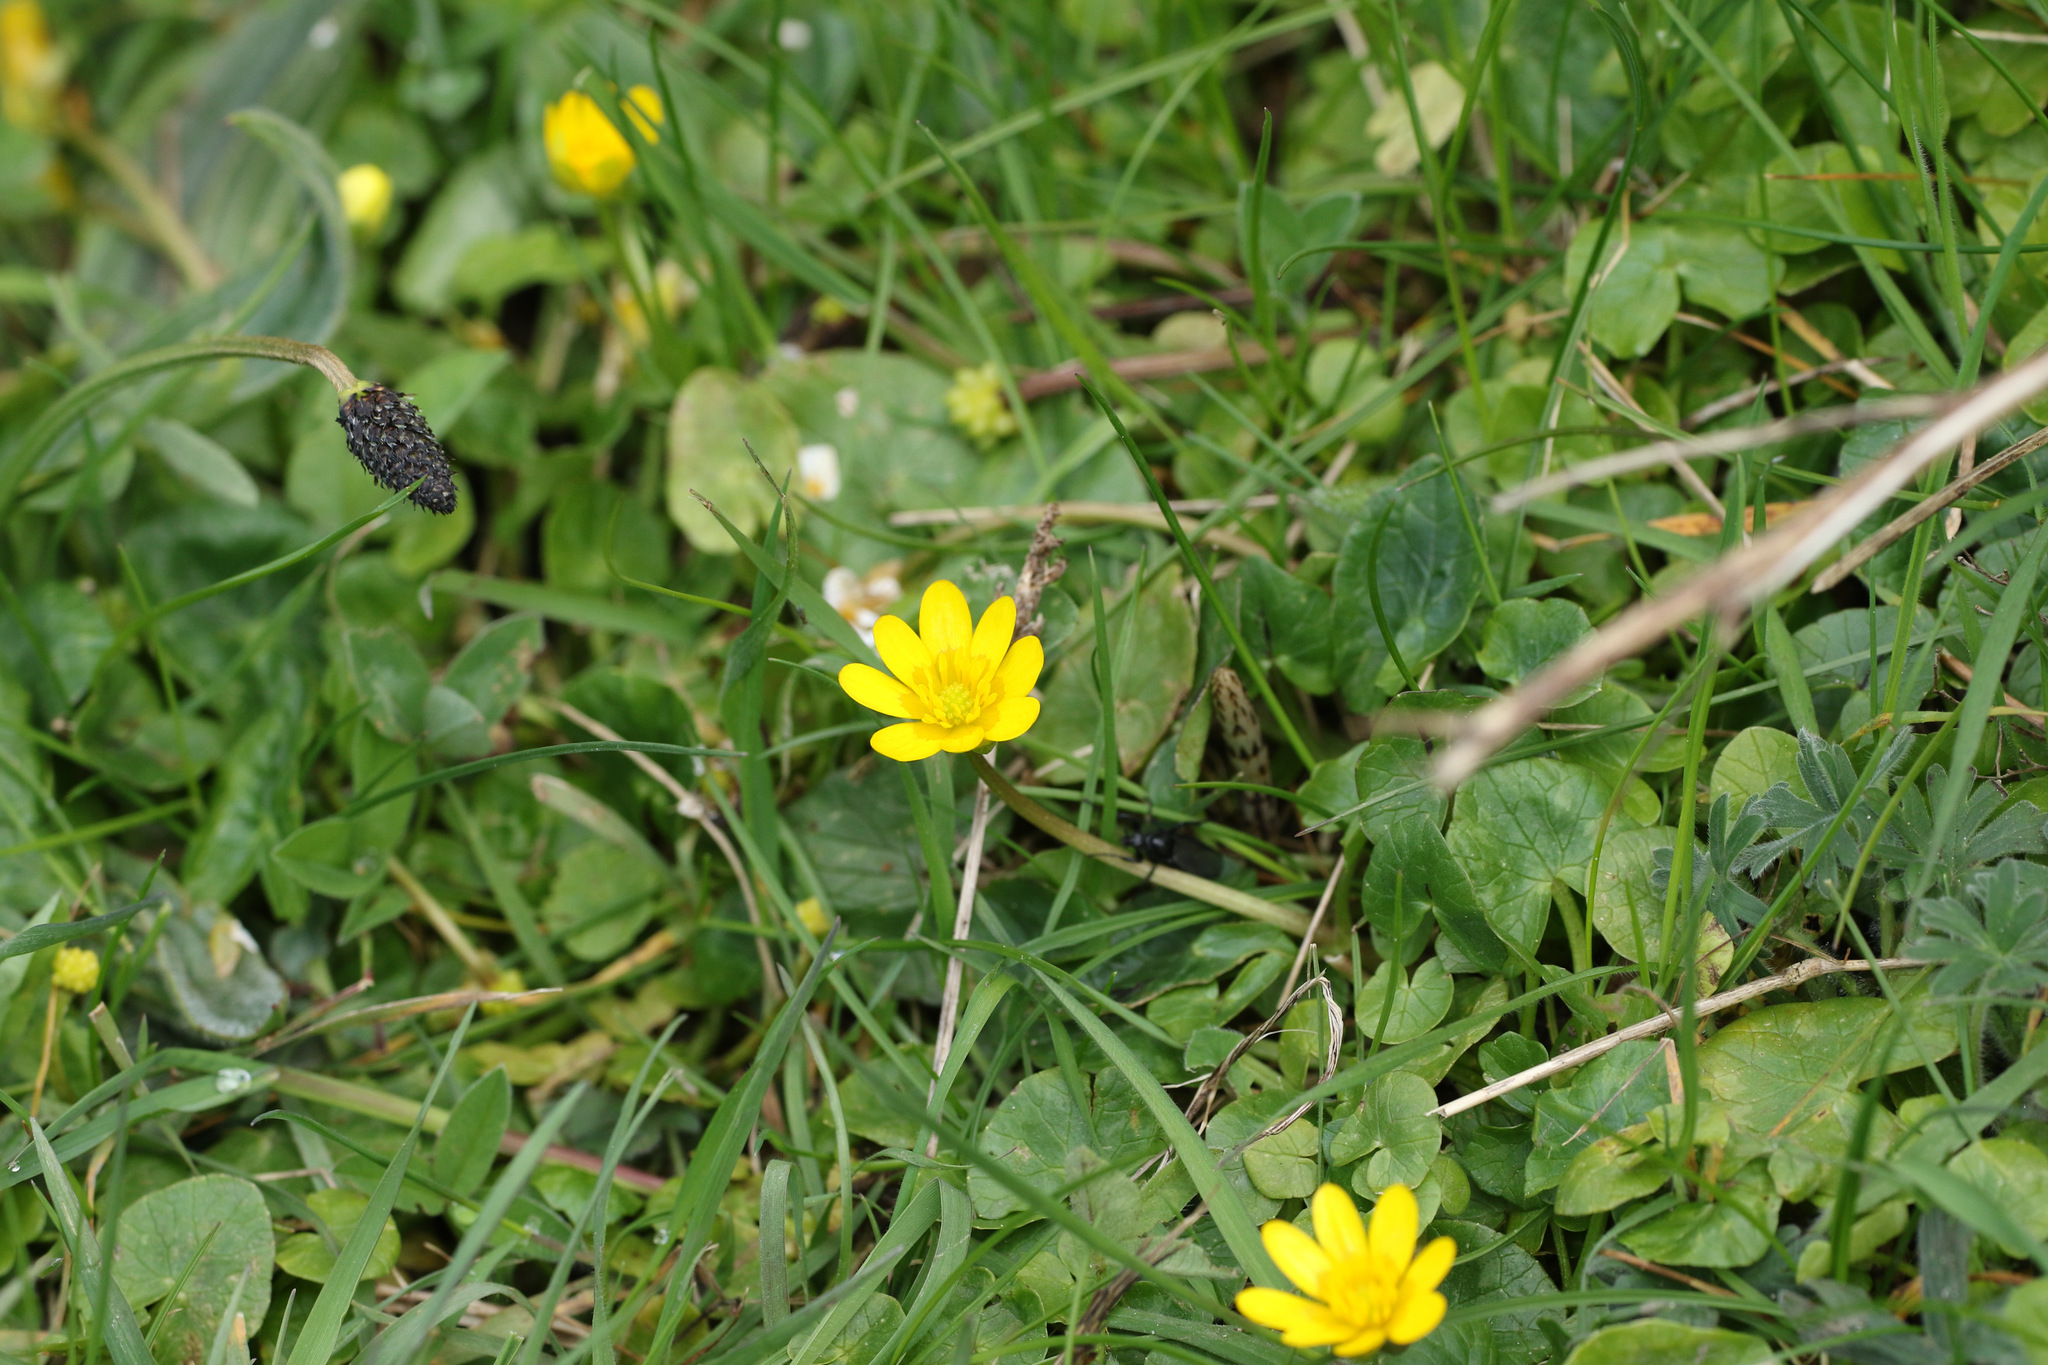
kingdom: Plantae
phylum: Tracheophyta
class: Magnoliopsida
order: Ranunculales
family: Ranunculaceae
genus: Ficaria
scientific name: Ficaria verna
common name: Lesser celandine
